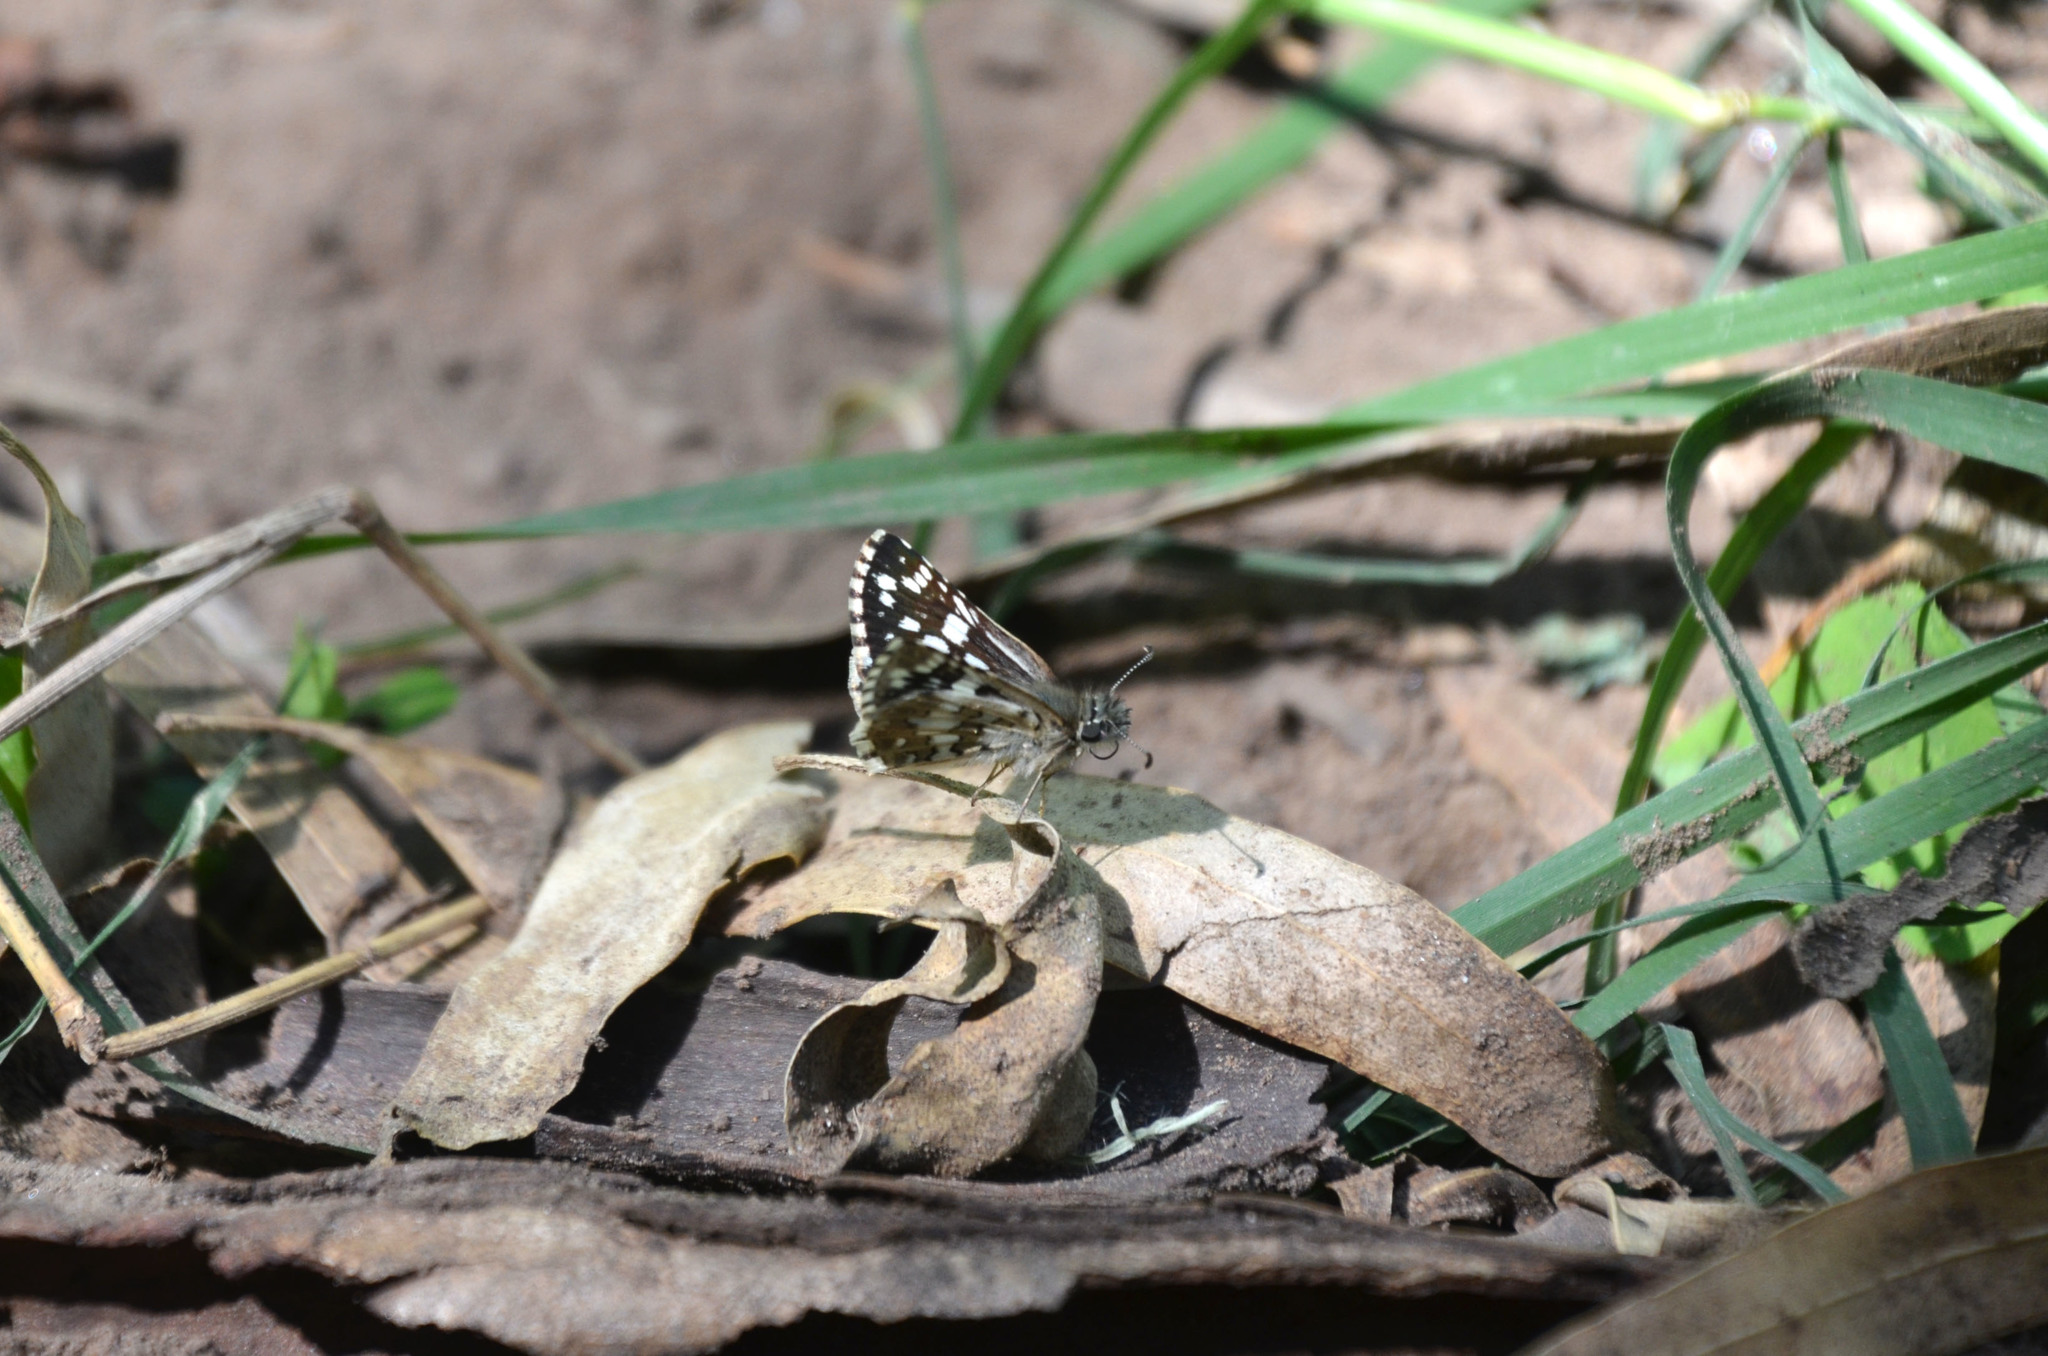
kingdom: Animalia
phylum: Arthropoda
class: Insecta
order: Lepidoptera
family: Hesperiidae
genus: Burnsius
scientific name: Burnsius orcynoides
